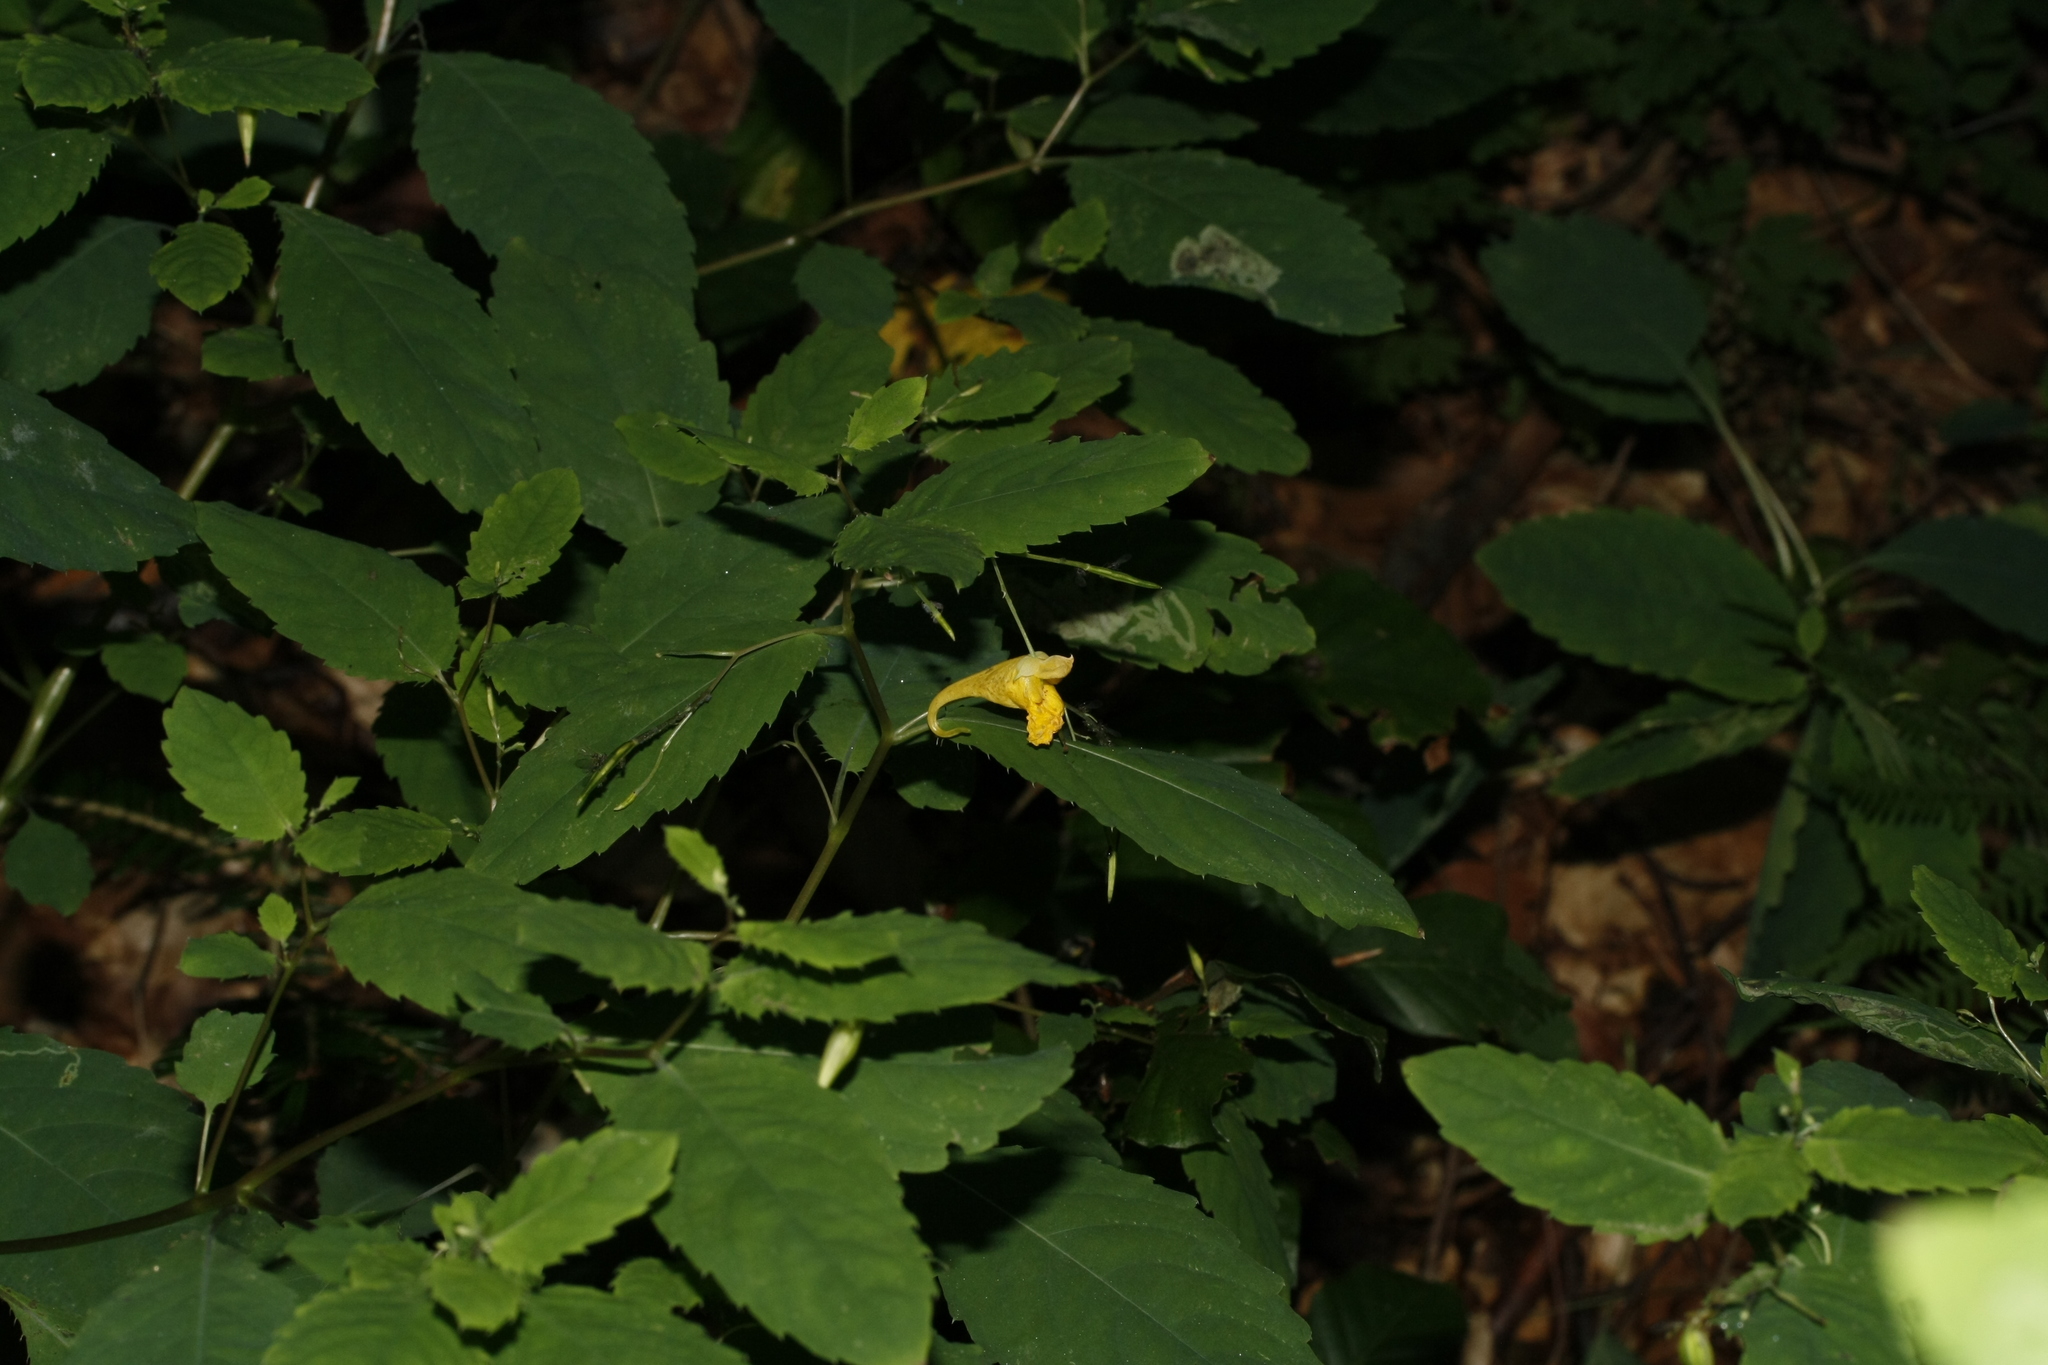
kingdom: Plantae
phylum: Tracheophyta
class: Magnoliopsida
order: Ericales
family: Balsaminaceae
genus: Impatiens
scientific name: Impatiens noli-tangere
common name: Touch-me-not balsam
